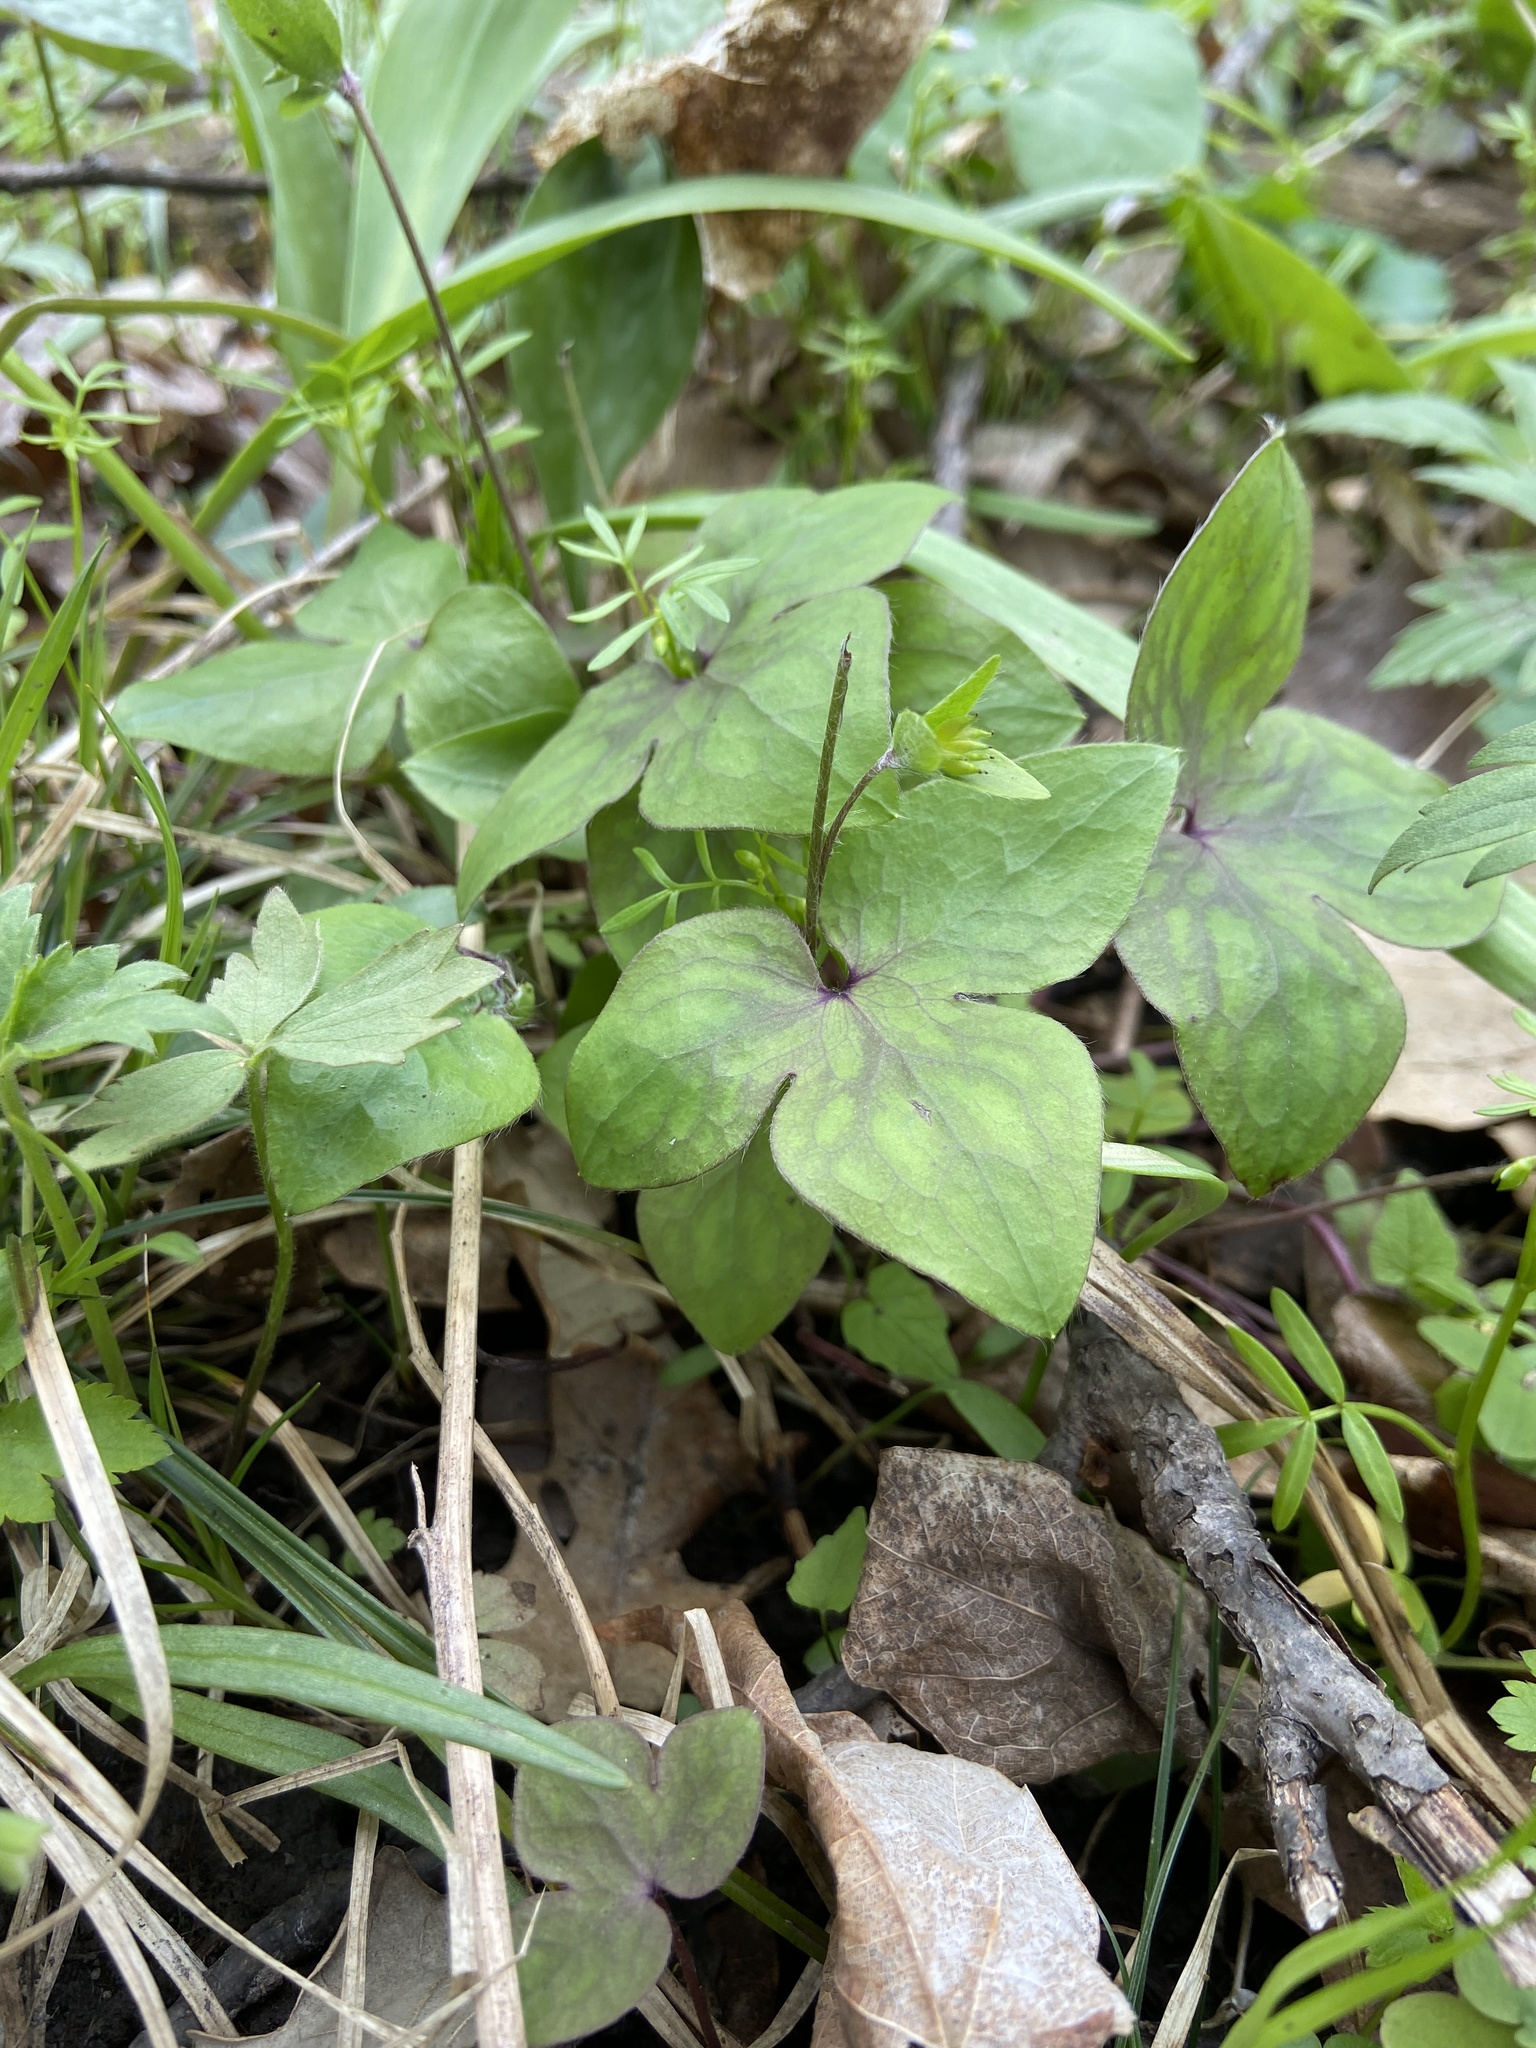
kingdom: Plantae
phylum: Tracheophyta
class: Magnoliopsida
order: Ranunculales
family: Ranunculaceae
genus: Hepatica
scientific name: Hepatica acutiloba
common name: Sharp-lobed hepatica
